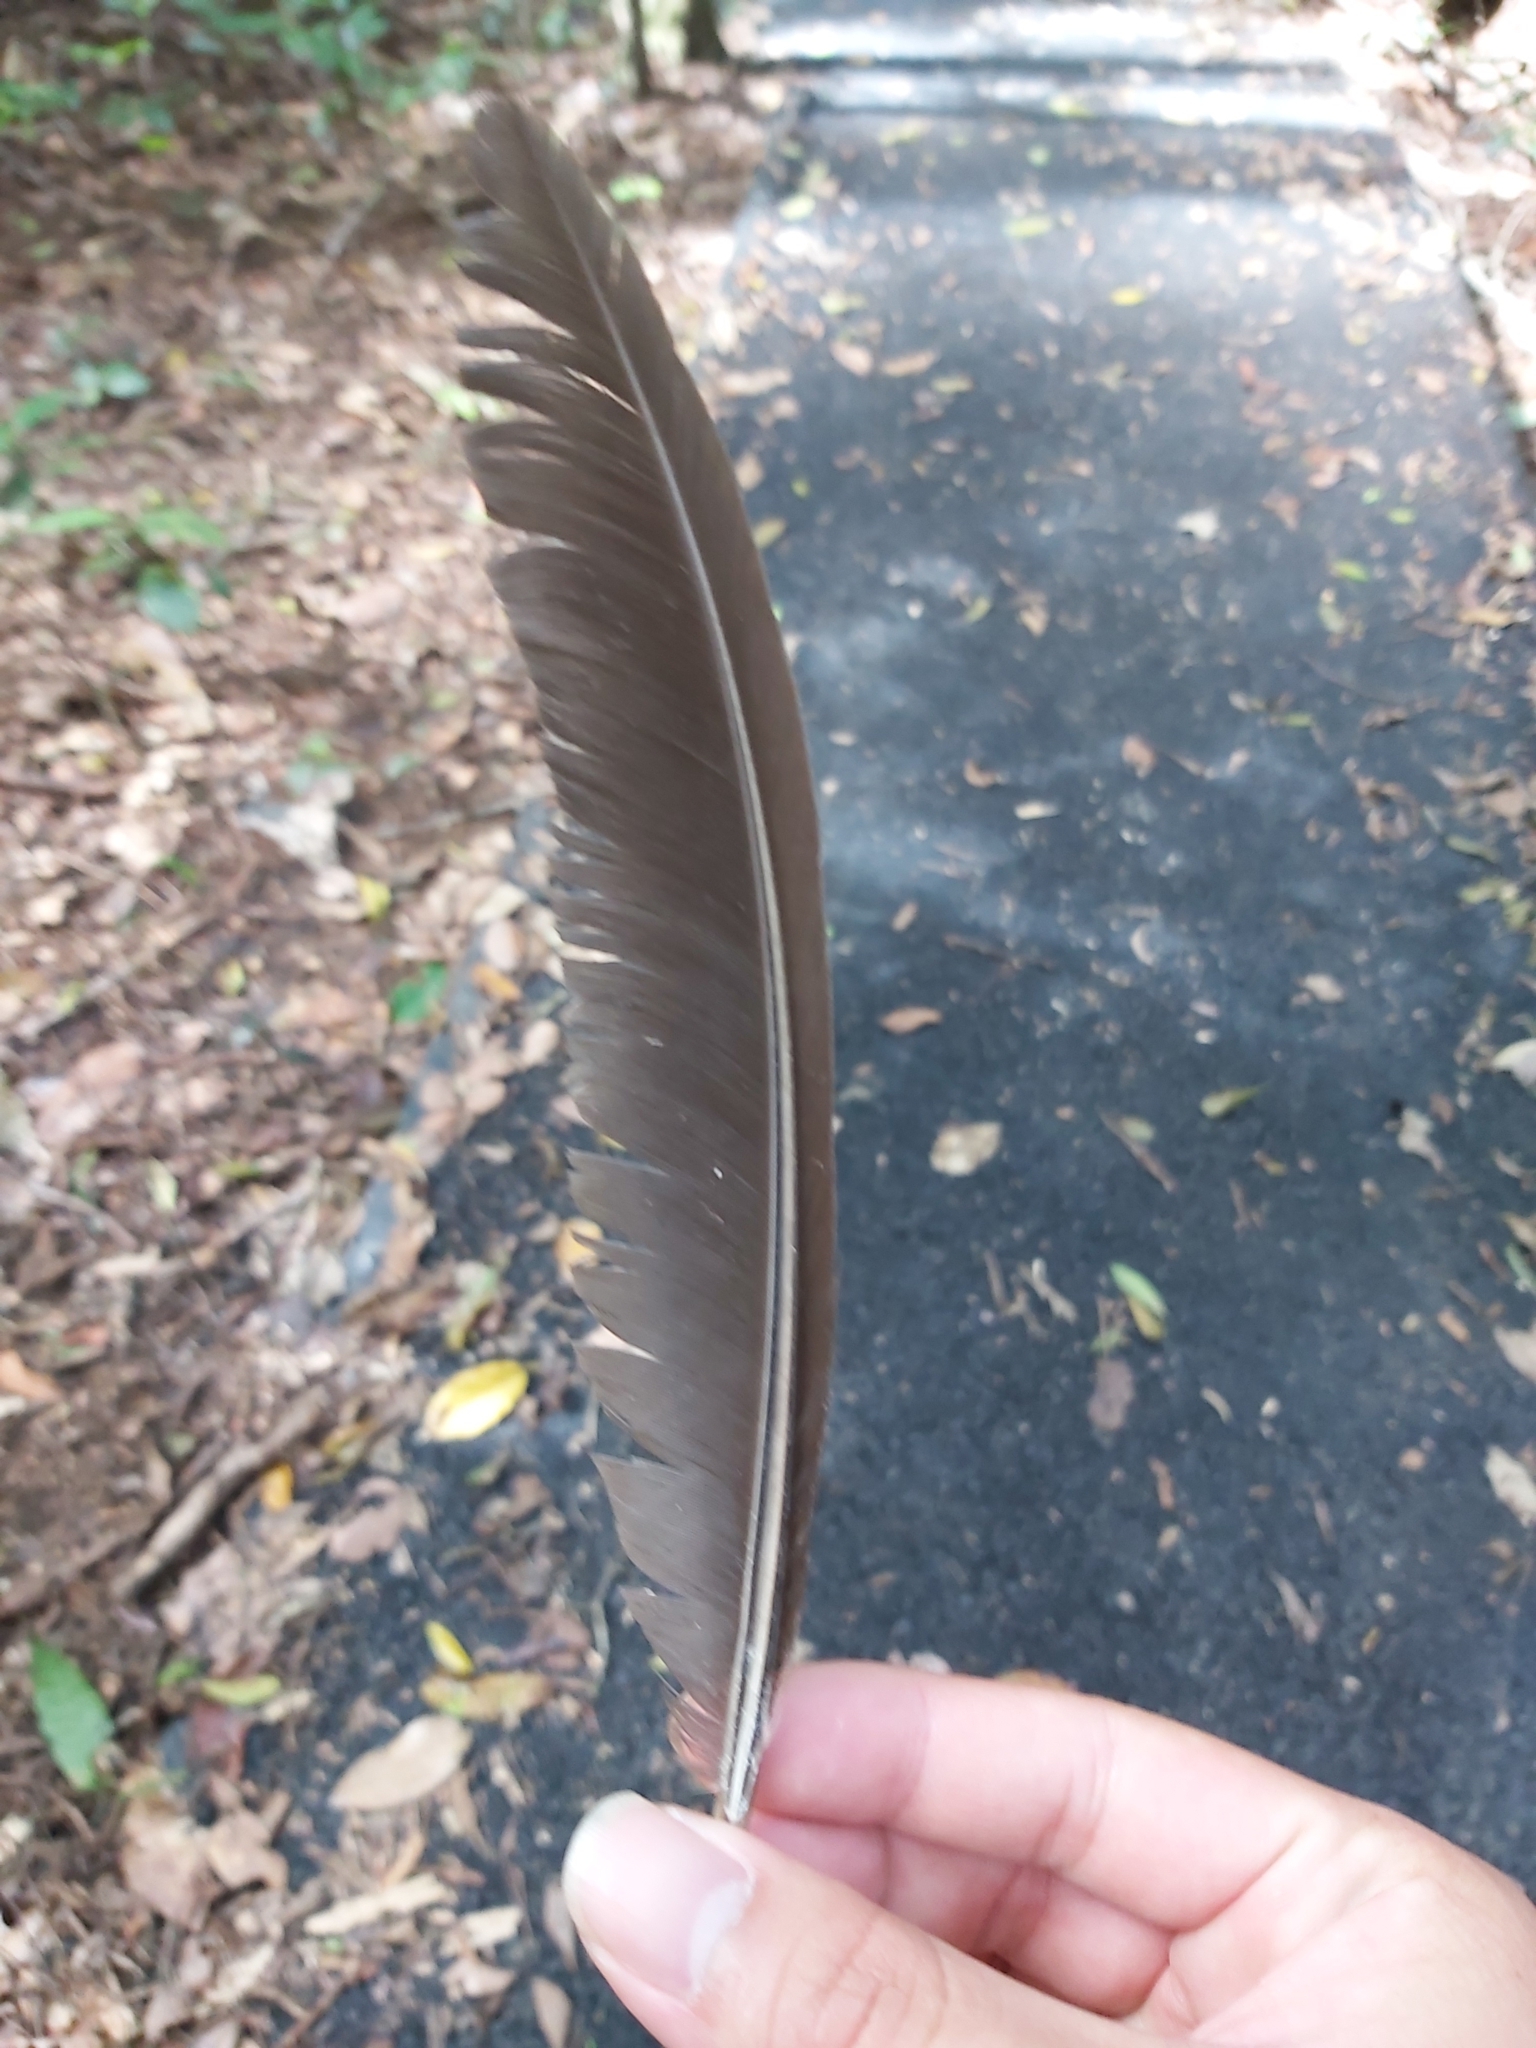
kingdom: Animalia
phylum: Chordata
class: Aves
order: Galliformes
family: Megapodiidae
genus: Alectura
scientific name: Alectura lathami
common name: Australian brushturkey
